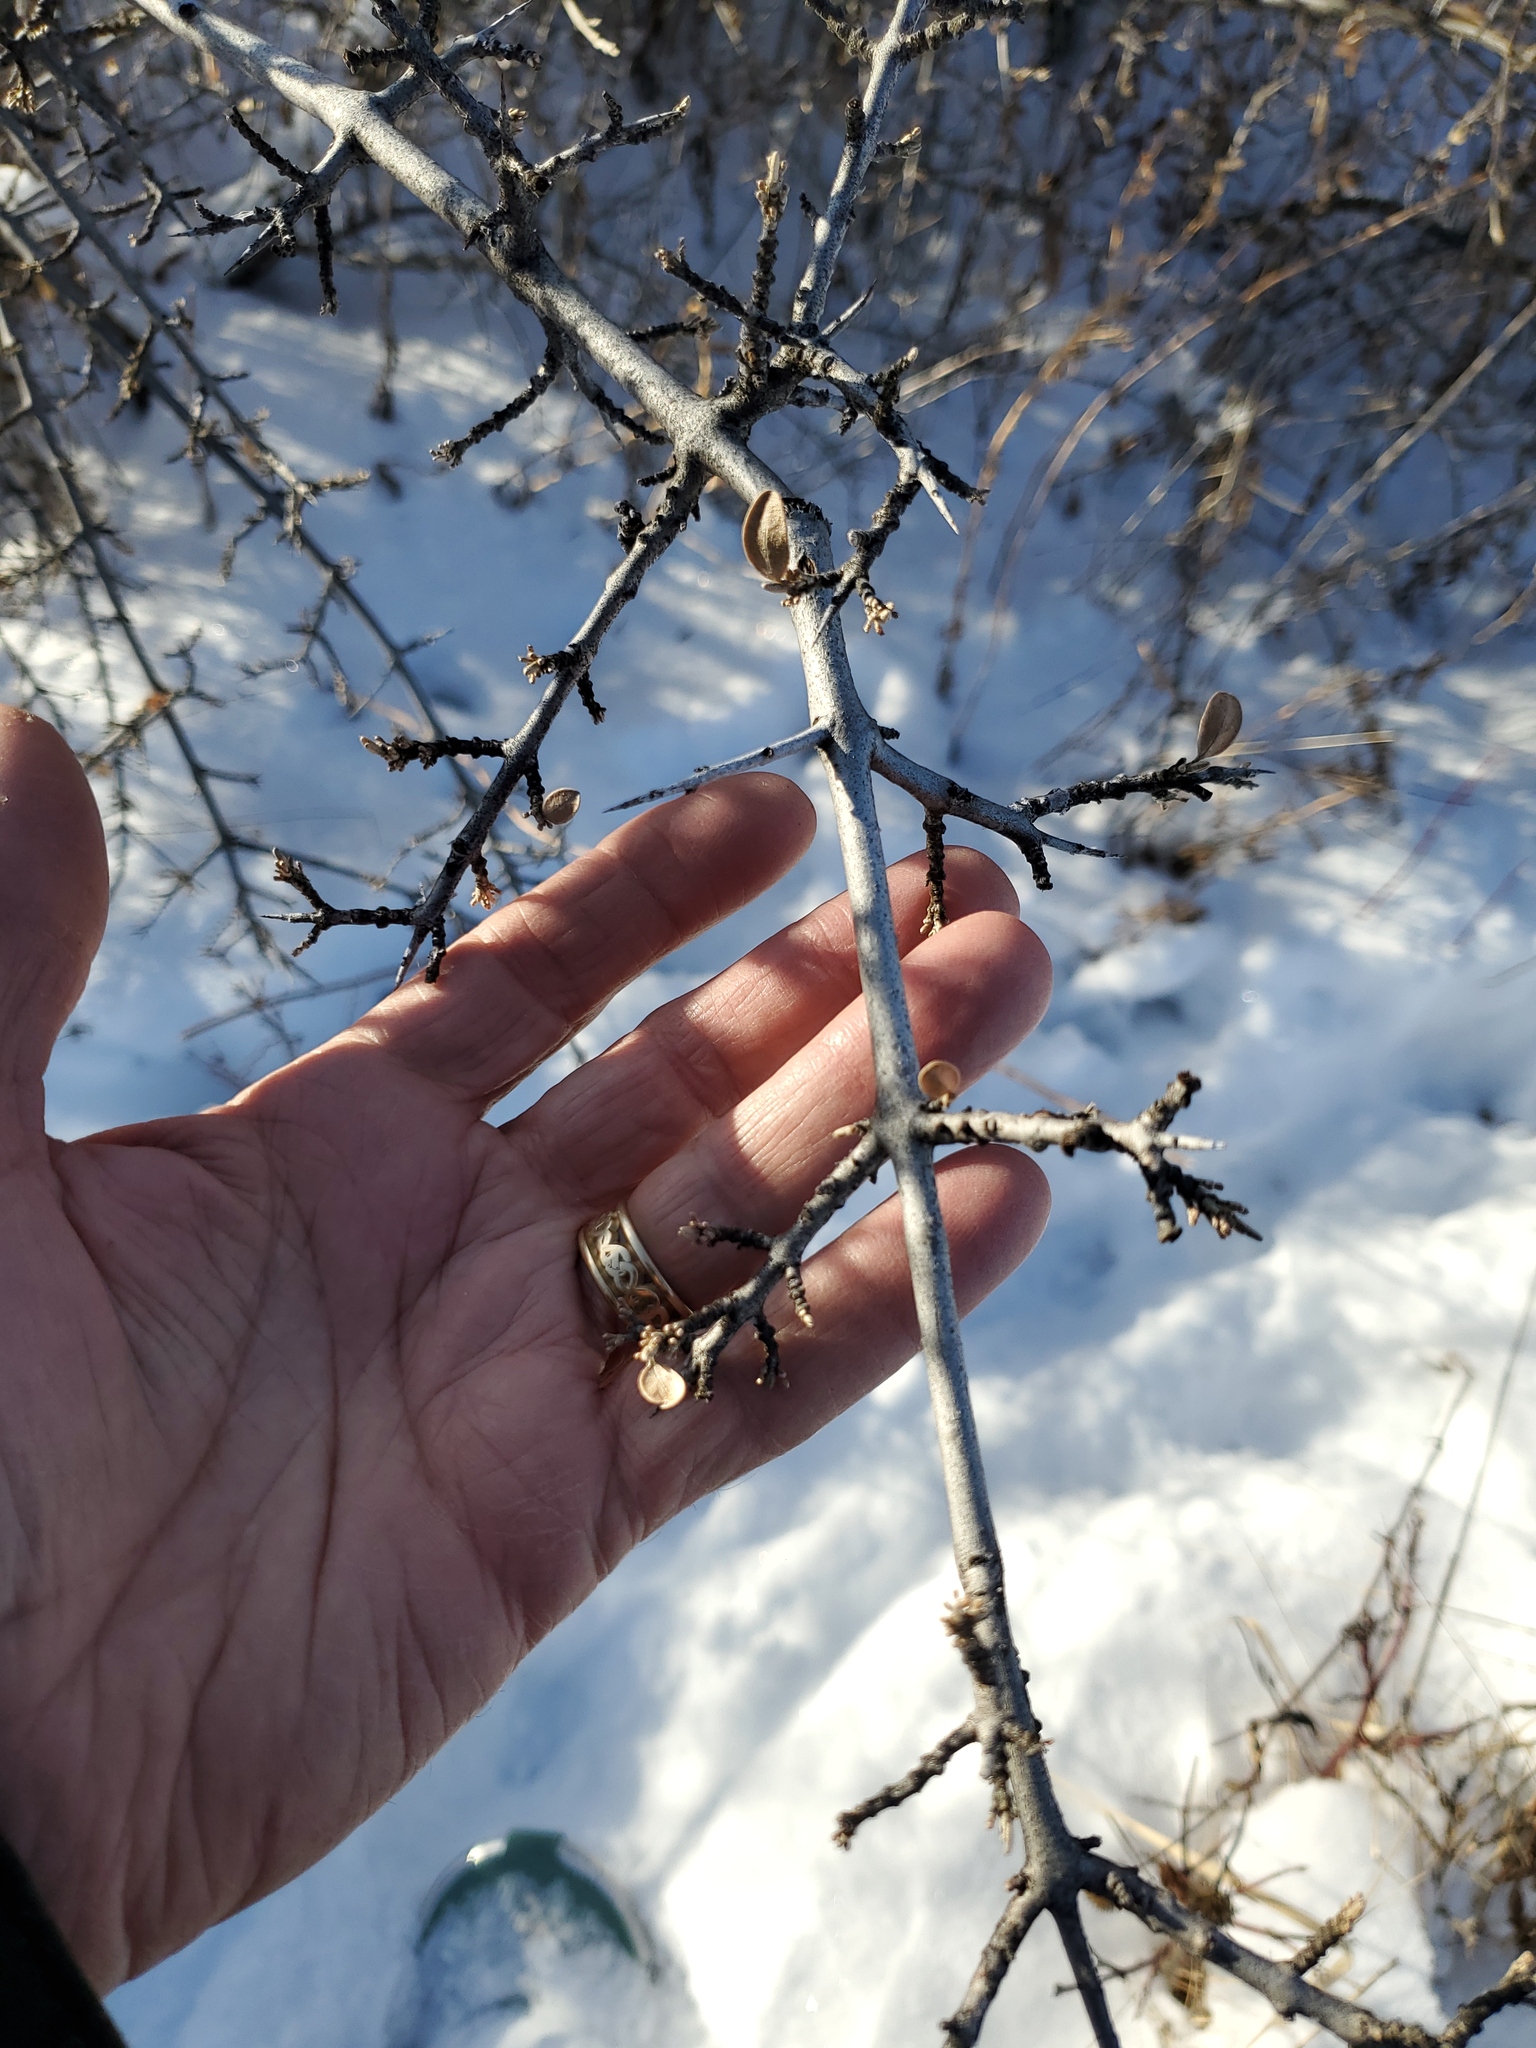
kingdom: Plantae
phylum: Tracheophyta
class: Magnoliopsida
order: Rosales
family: Elaeagnaceae
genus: Shepherdia
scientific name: Shepherdia argentea
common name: Silver buffaloberry
